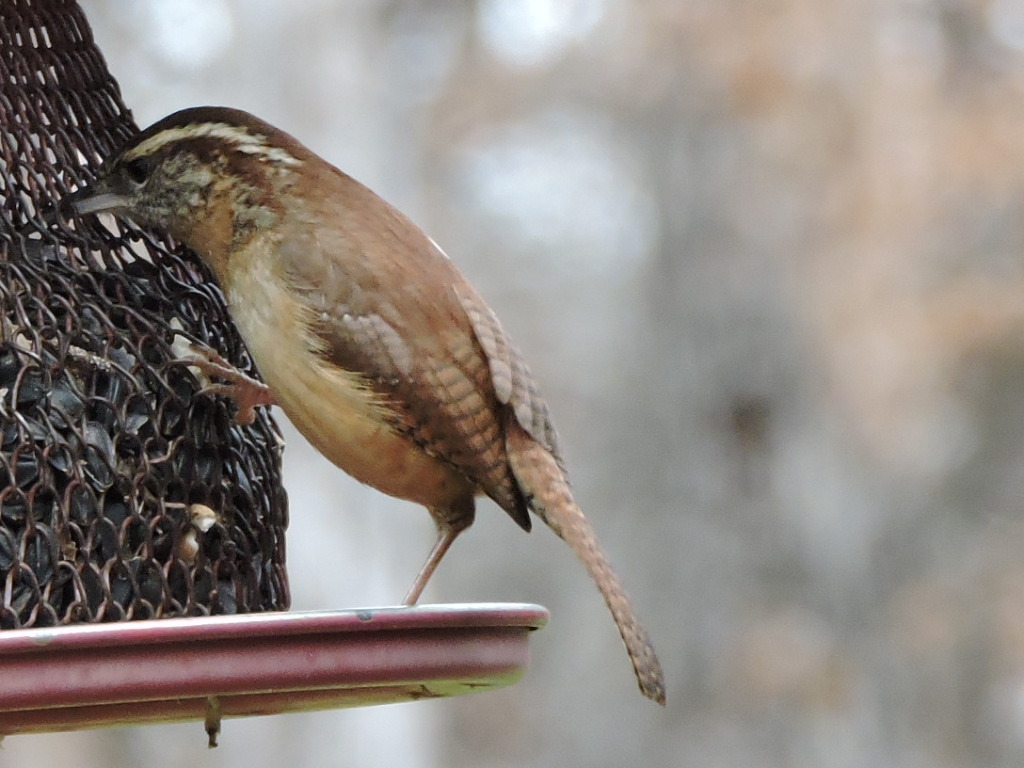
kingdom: Animalia
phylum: Chordata
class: Aves
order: Passeriformes
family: Troglodytidae
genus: Thryothorus
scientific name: Thryothorus ludovicianus
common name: Carolina wren
